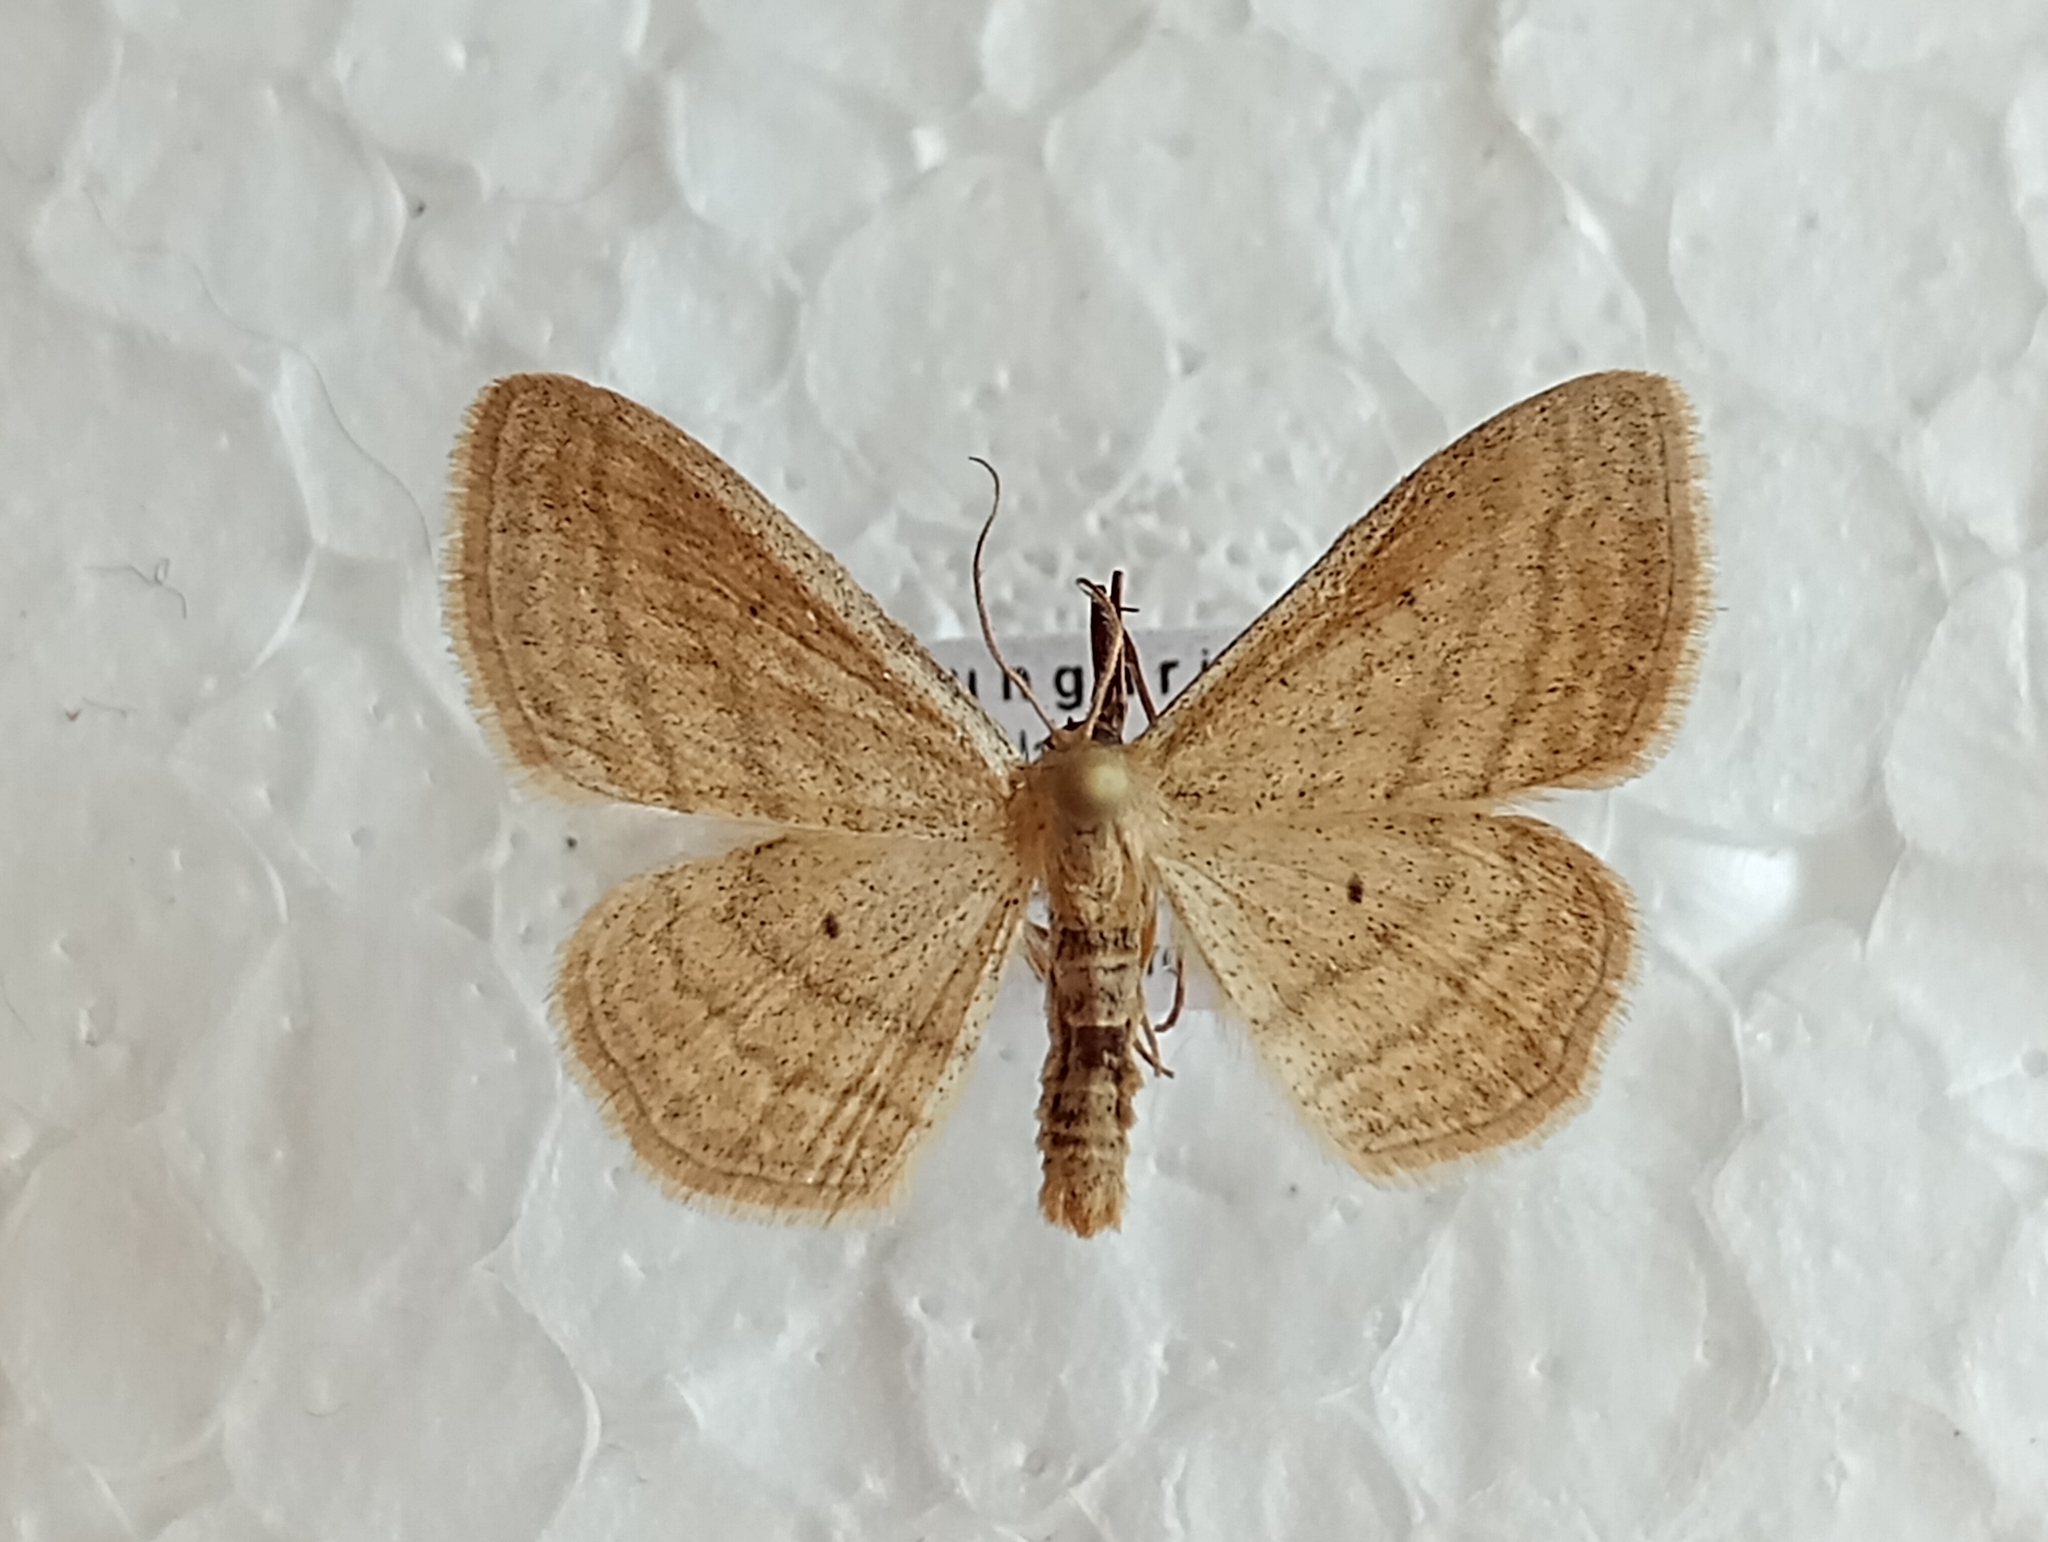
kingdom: Animalia
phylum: Arthropoda
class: Insecta
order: Lepidoptera
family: Geometridae
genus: Scopula
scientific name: Scopula virgulata
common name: Streaked wave
